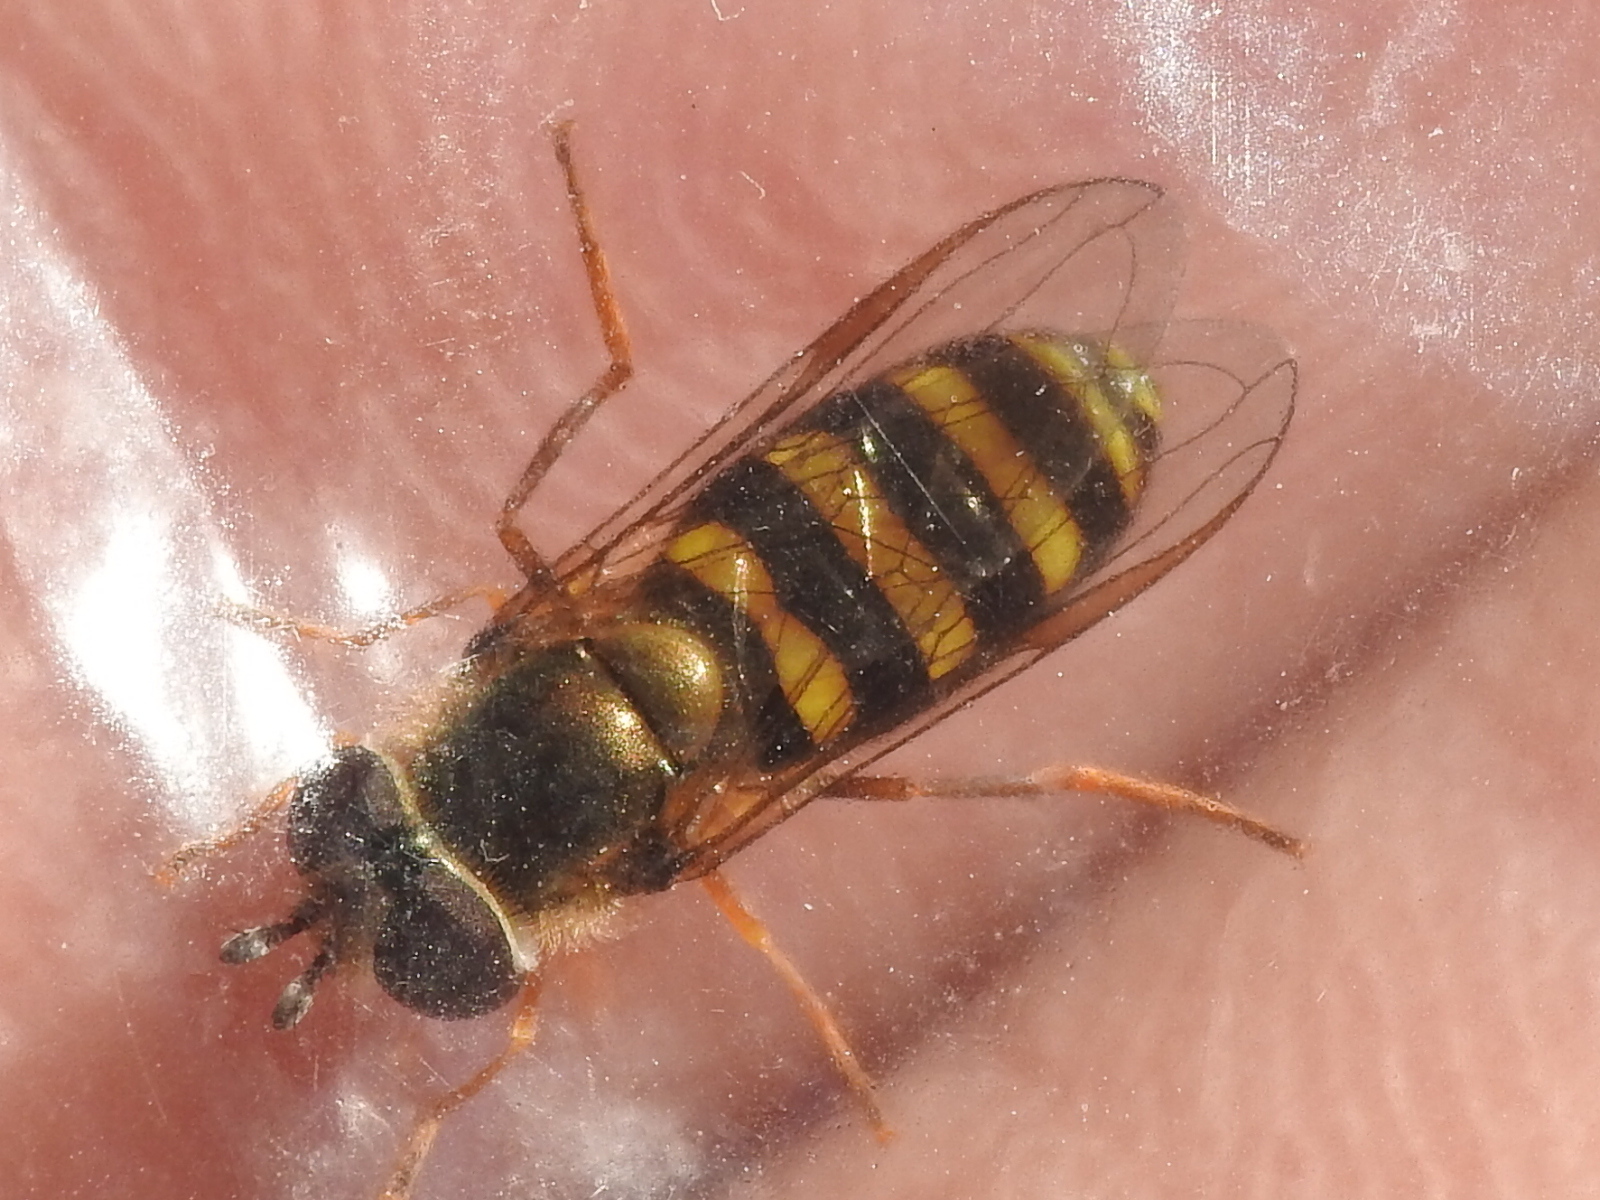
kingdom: Animalia
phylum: Arthropoda
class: Insecta
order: Diptera
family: Syrphidae
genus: Eupeodes
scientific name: Eupeodes
